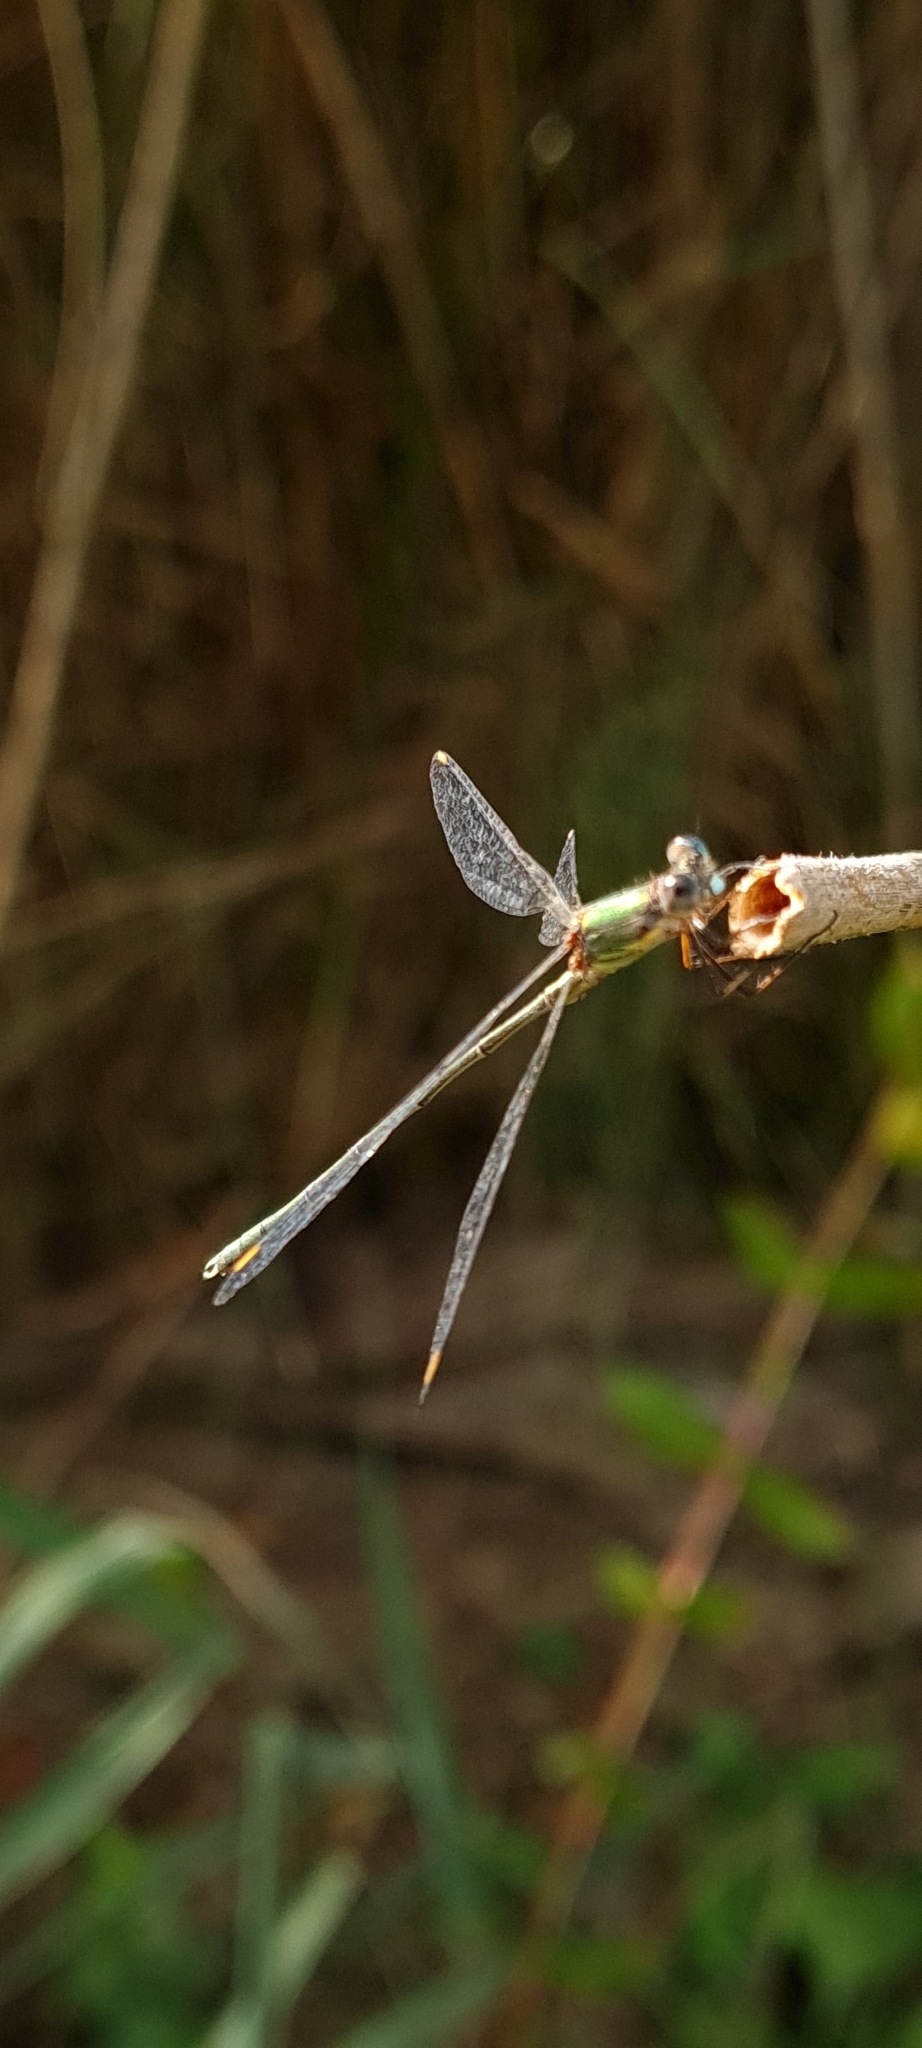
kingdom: Animalia
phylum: Arthropoda
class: Insecta
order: Odonata
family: Lestidae
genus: Chalcolestes
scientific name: Chalcolestes viridis
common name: Green emerald damselfly
